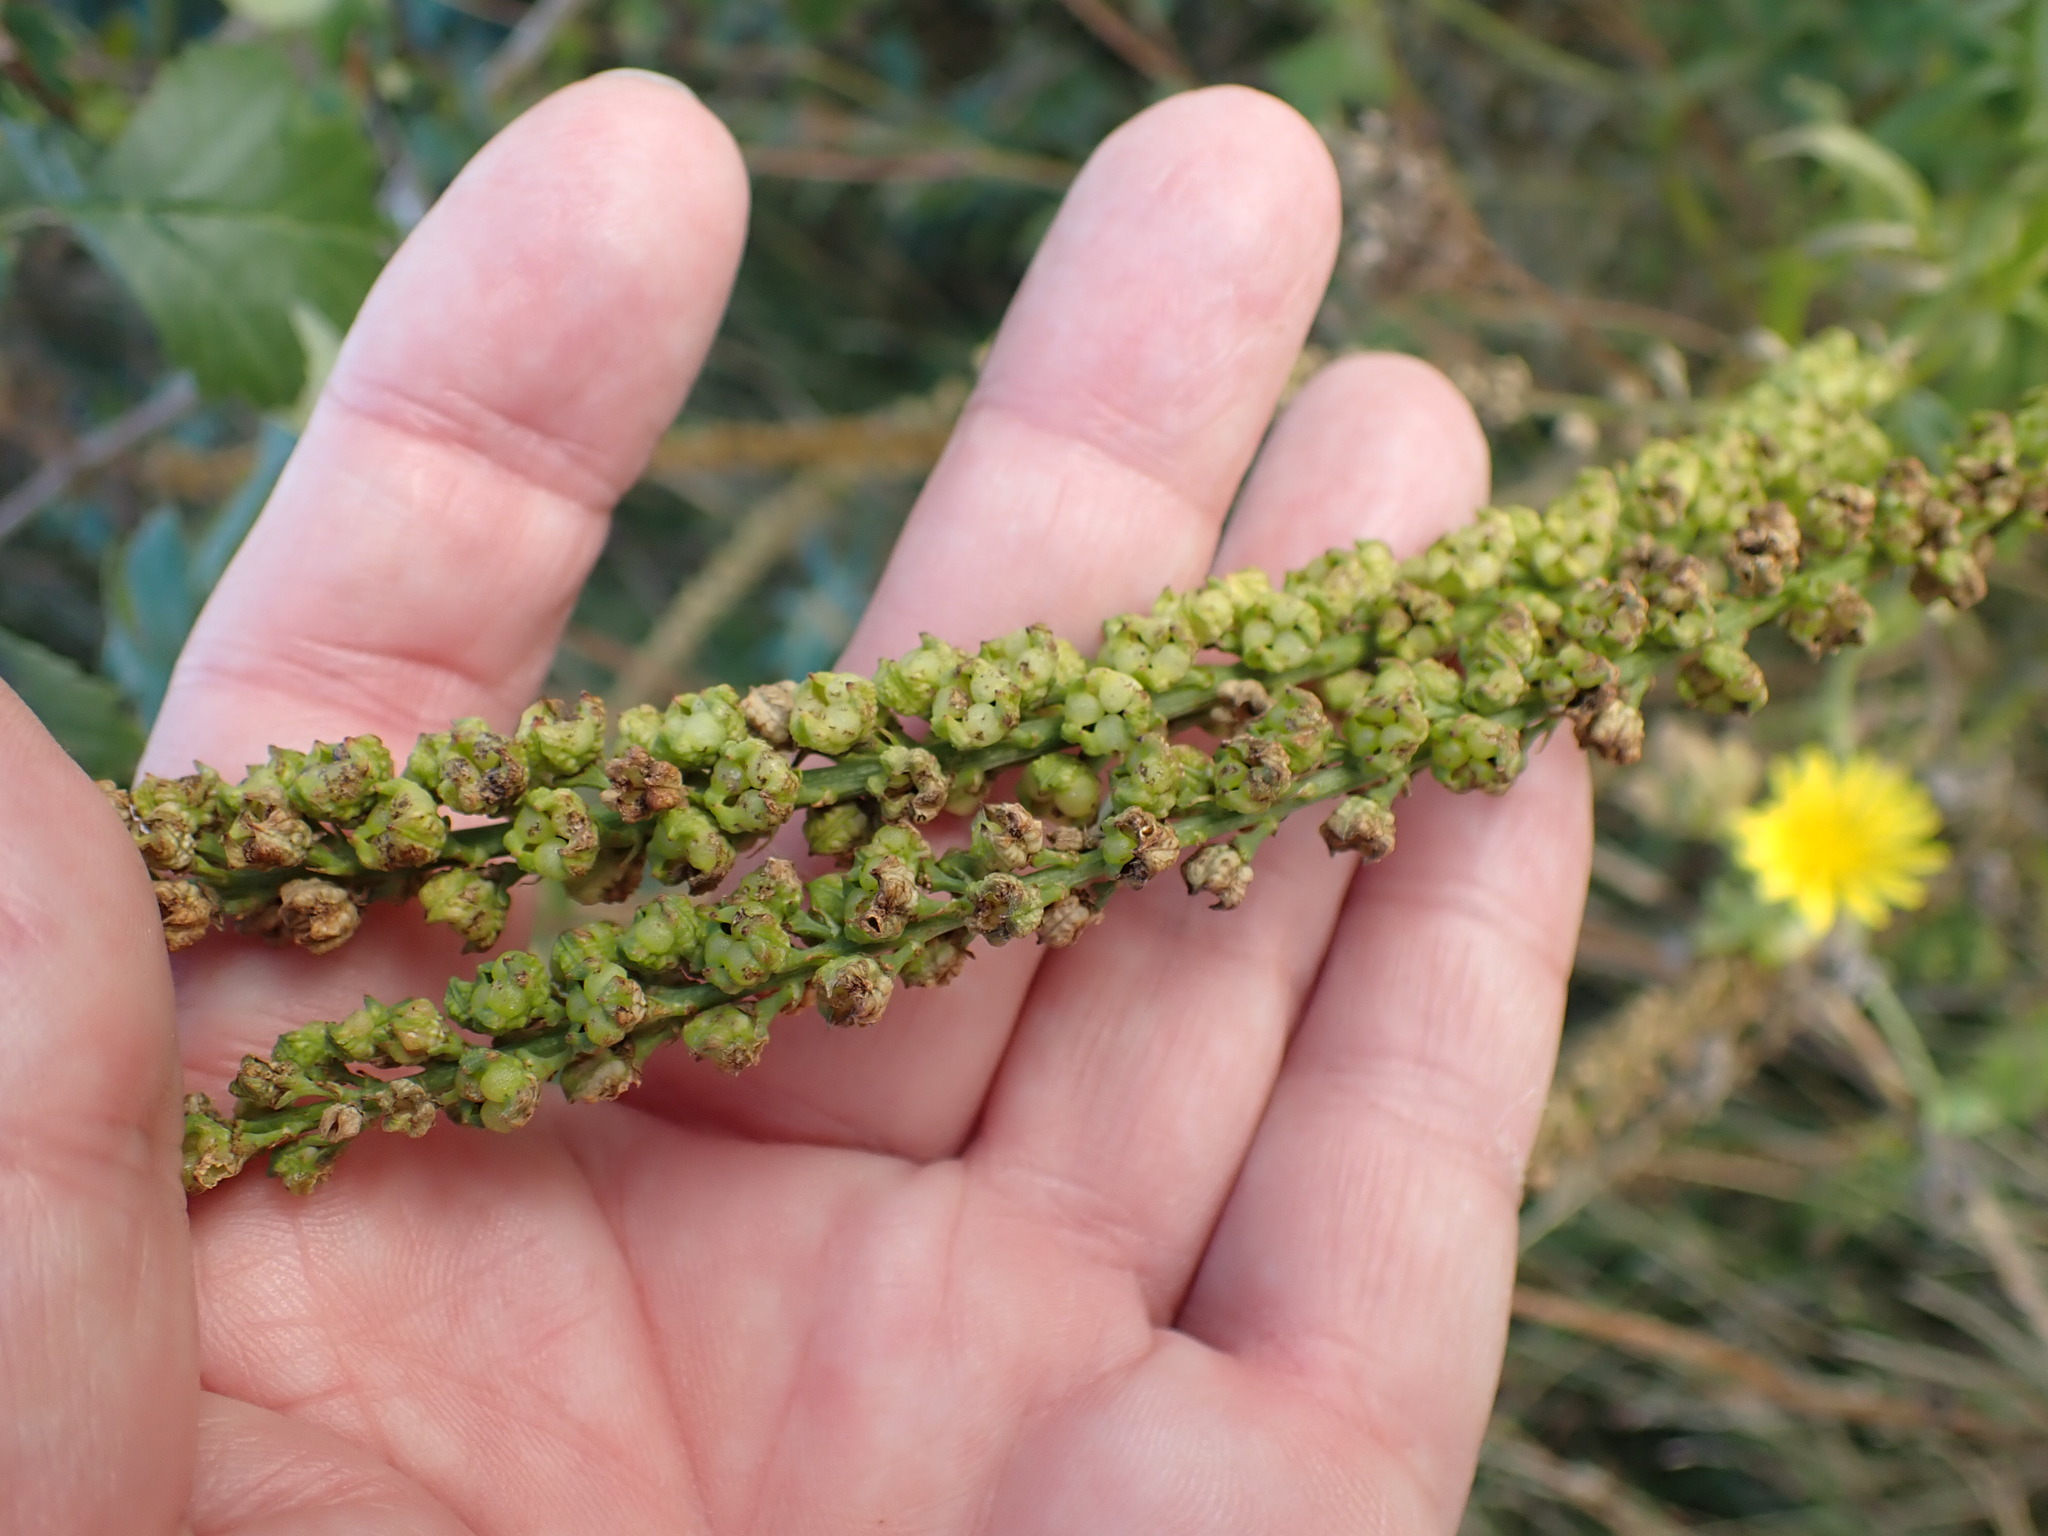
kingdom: Plantae
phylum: Tracheophyta
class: Magnoliopsida
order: Brassicales
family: Resedaceae
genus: Reseda
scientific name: Reseda luteola
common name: Weld
